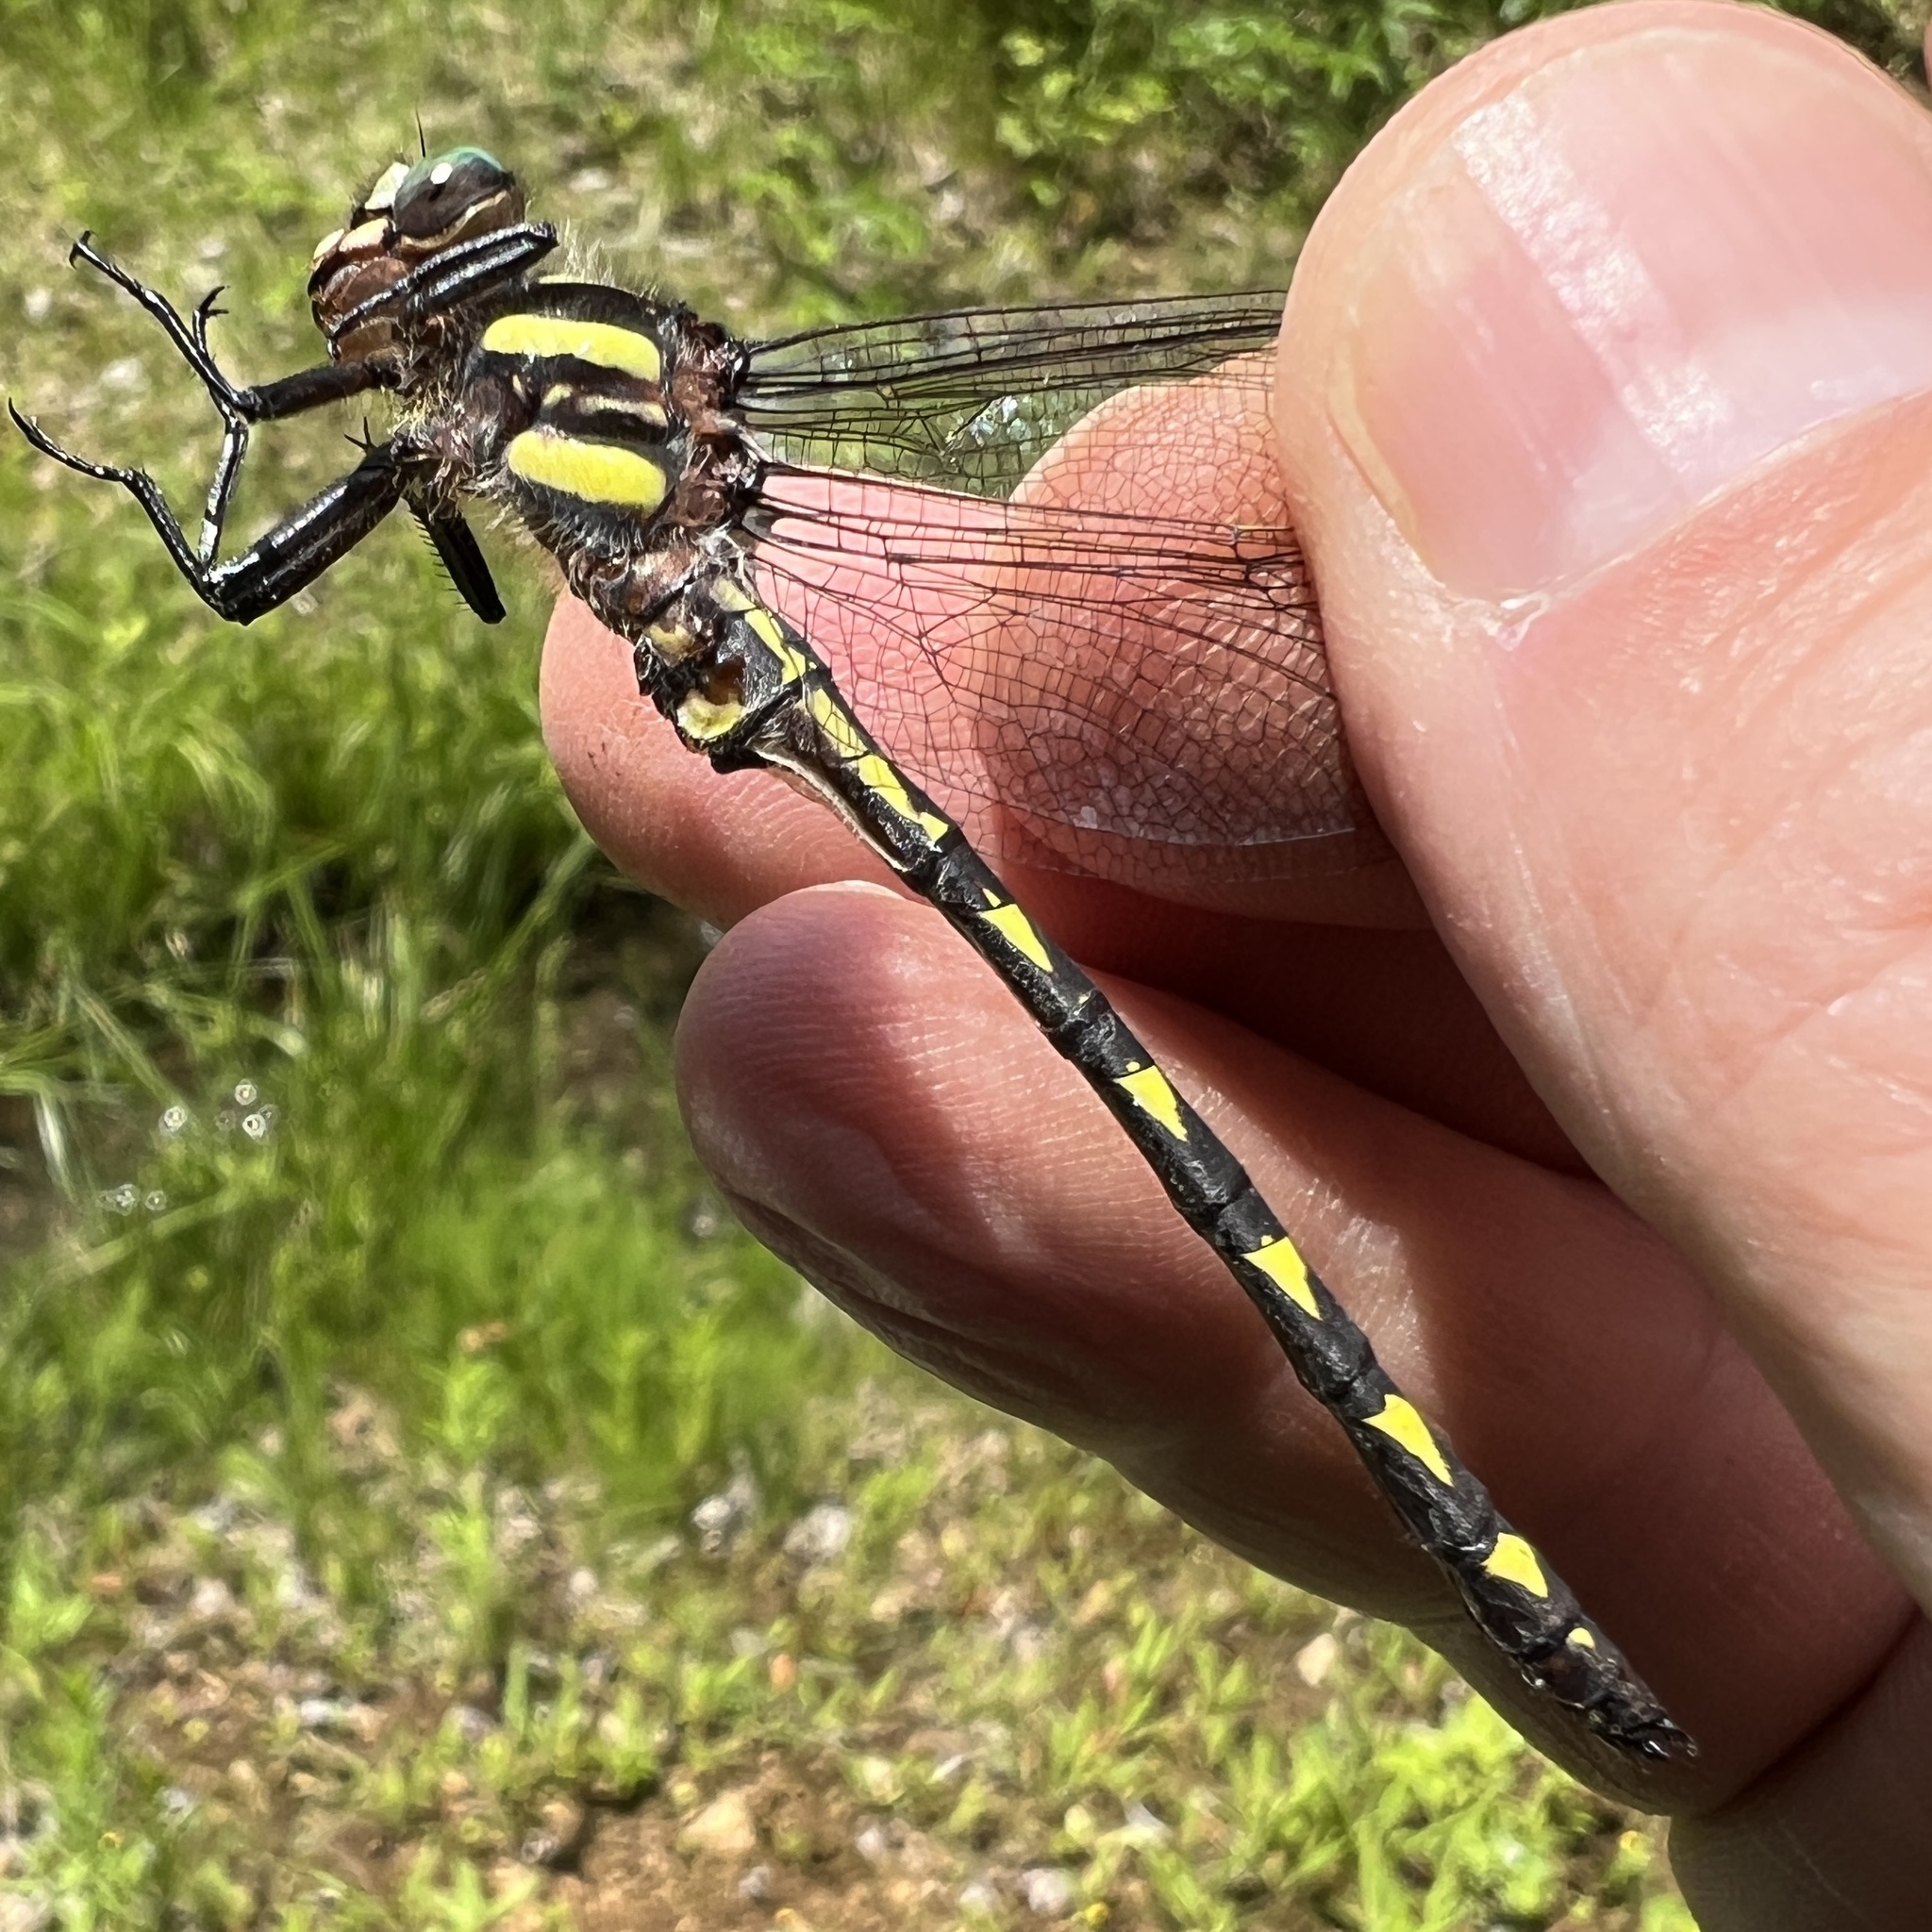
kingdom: Animalia
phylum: Arthropoda
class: Insecta
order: Odonata
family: Cordulegastridae
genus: Cordulegaster
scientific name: Cordulegaster diastatops
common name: Delta-spotted spiketail
